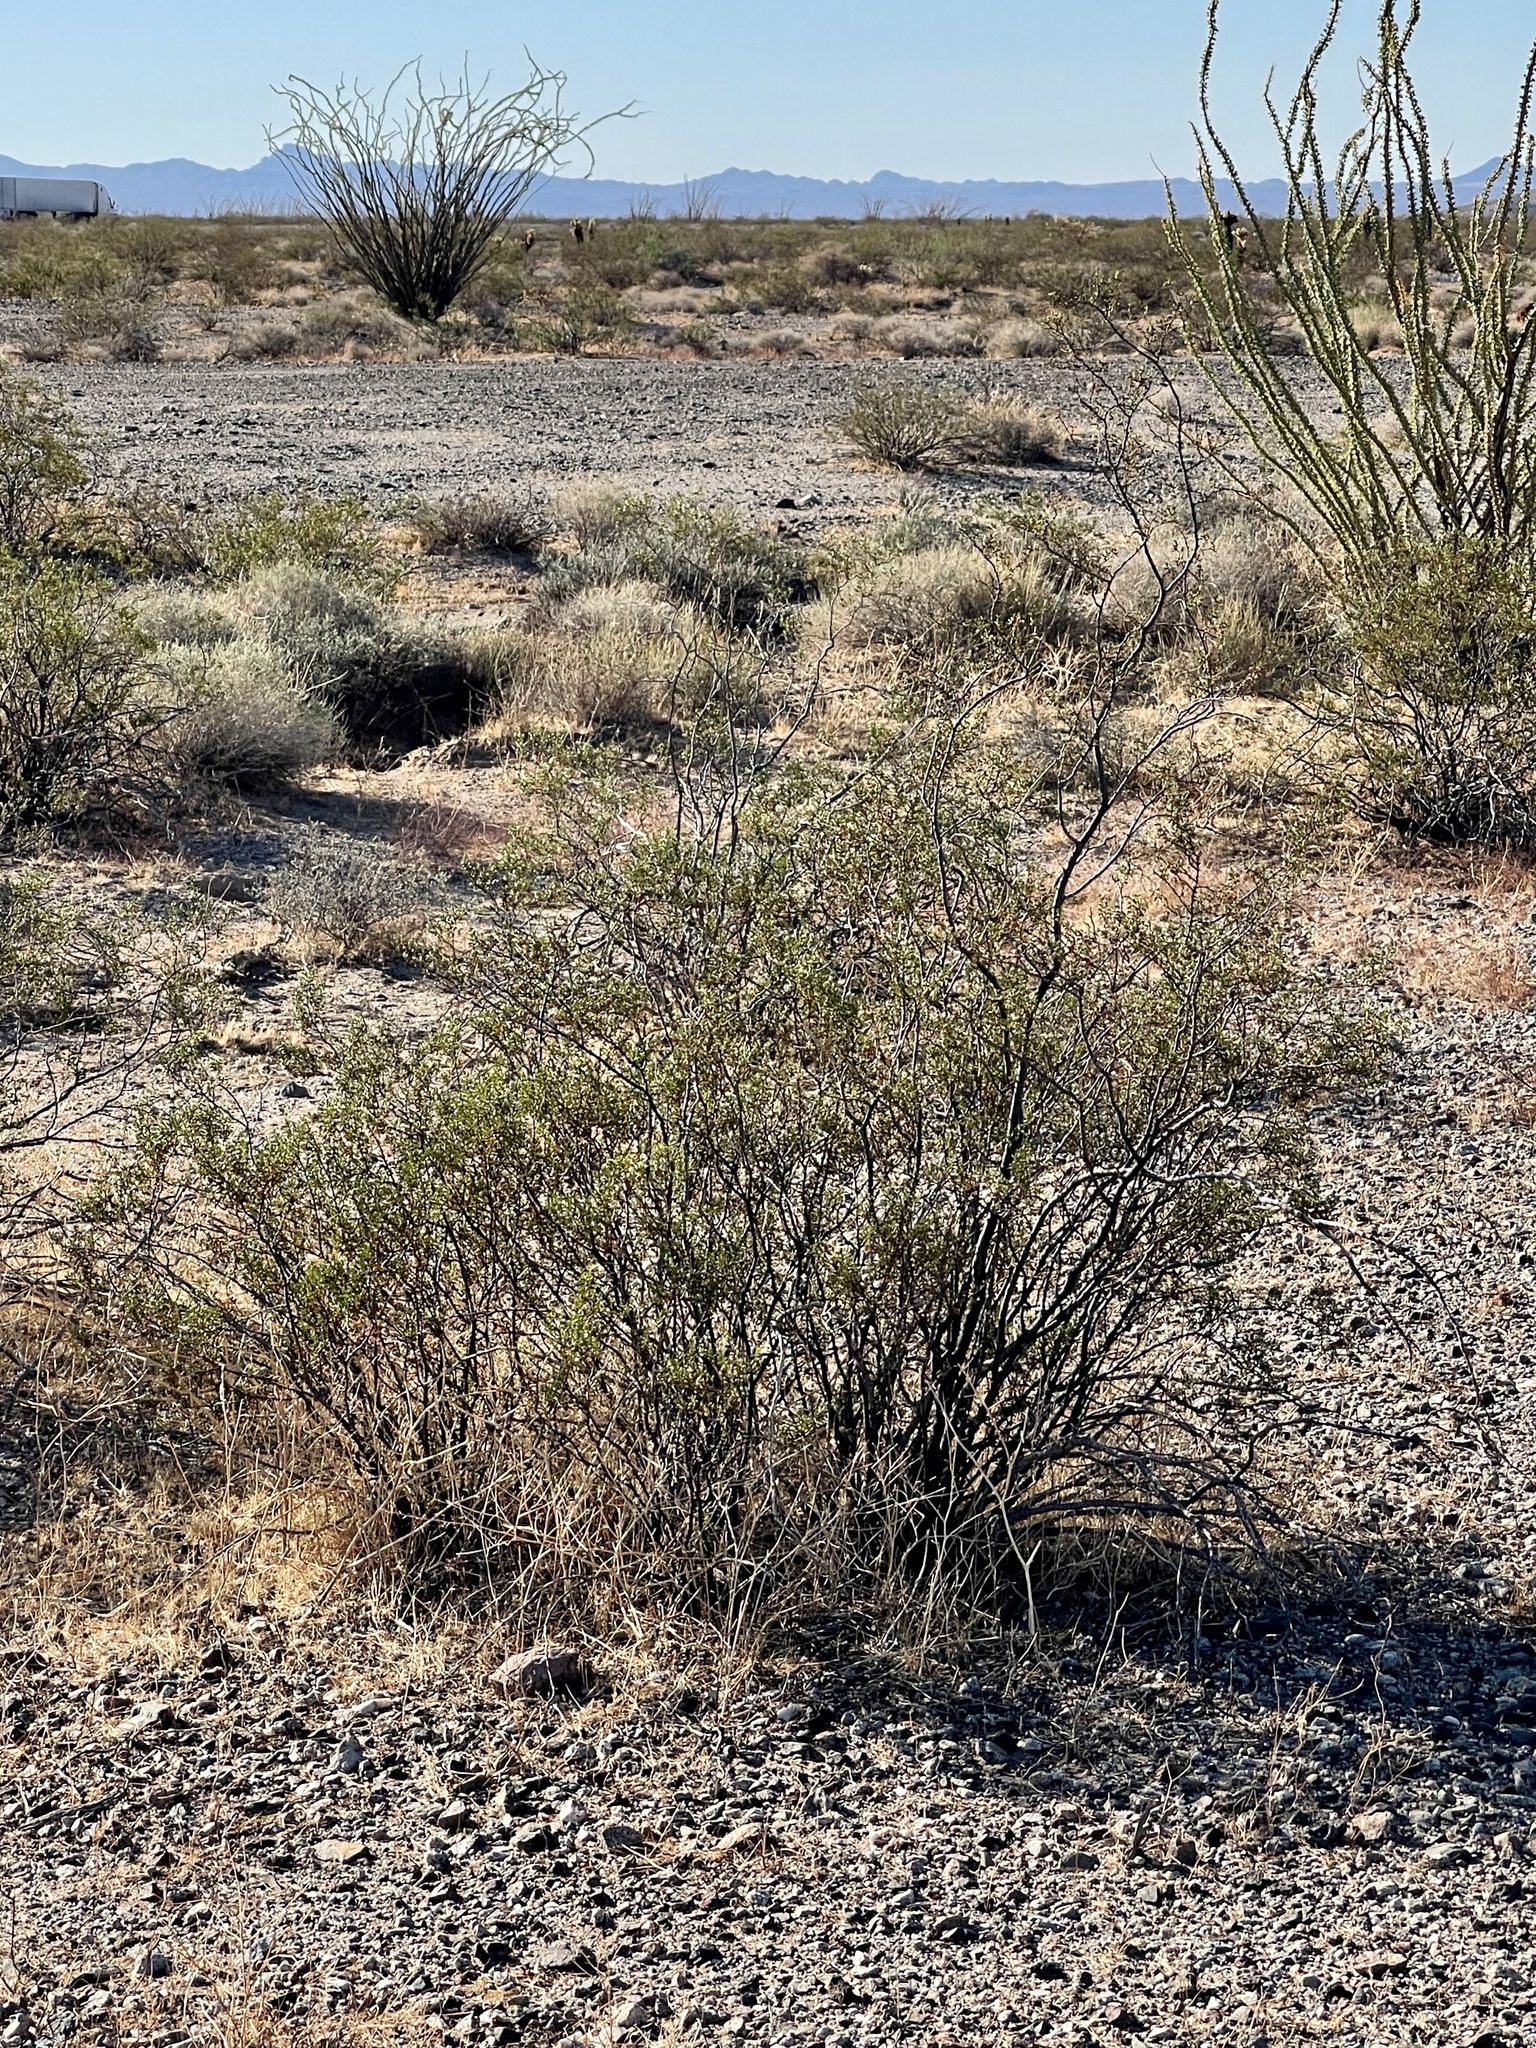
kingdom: Plantae
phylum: Tracheophyta
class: Magnoliopsida
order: Zygophyllales
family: Zygophyllaceae
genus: Larrea
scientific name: Larrea tridentata
